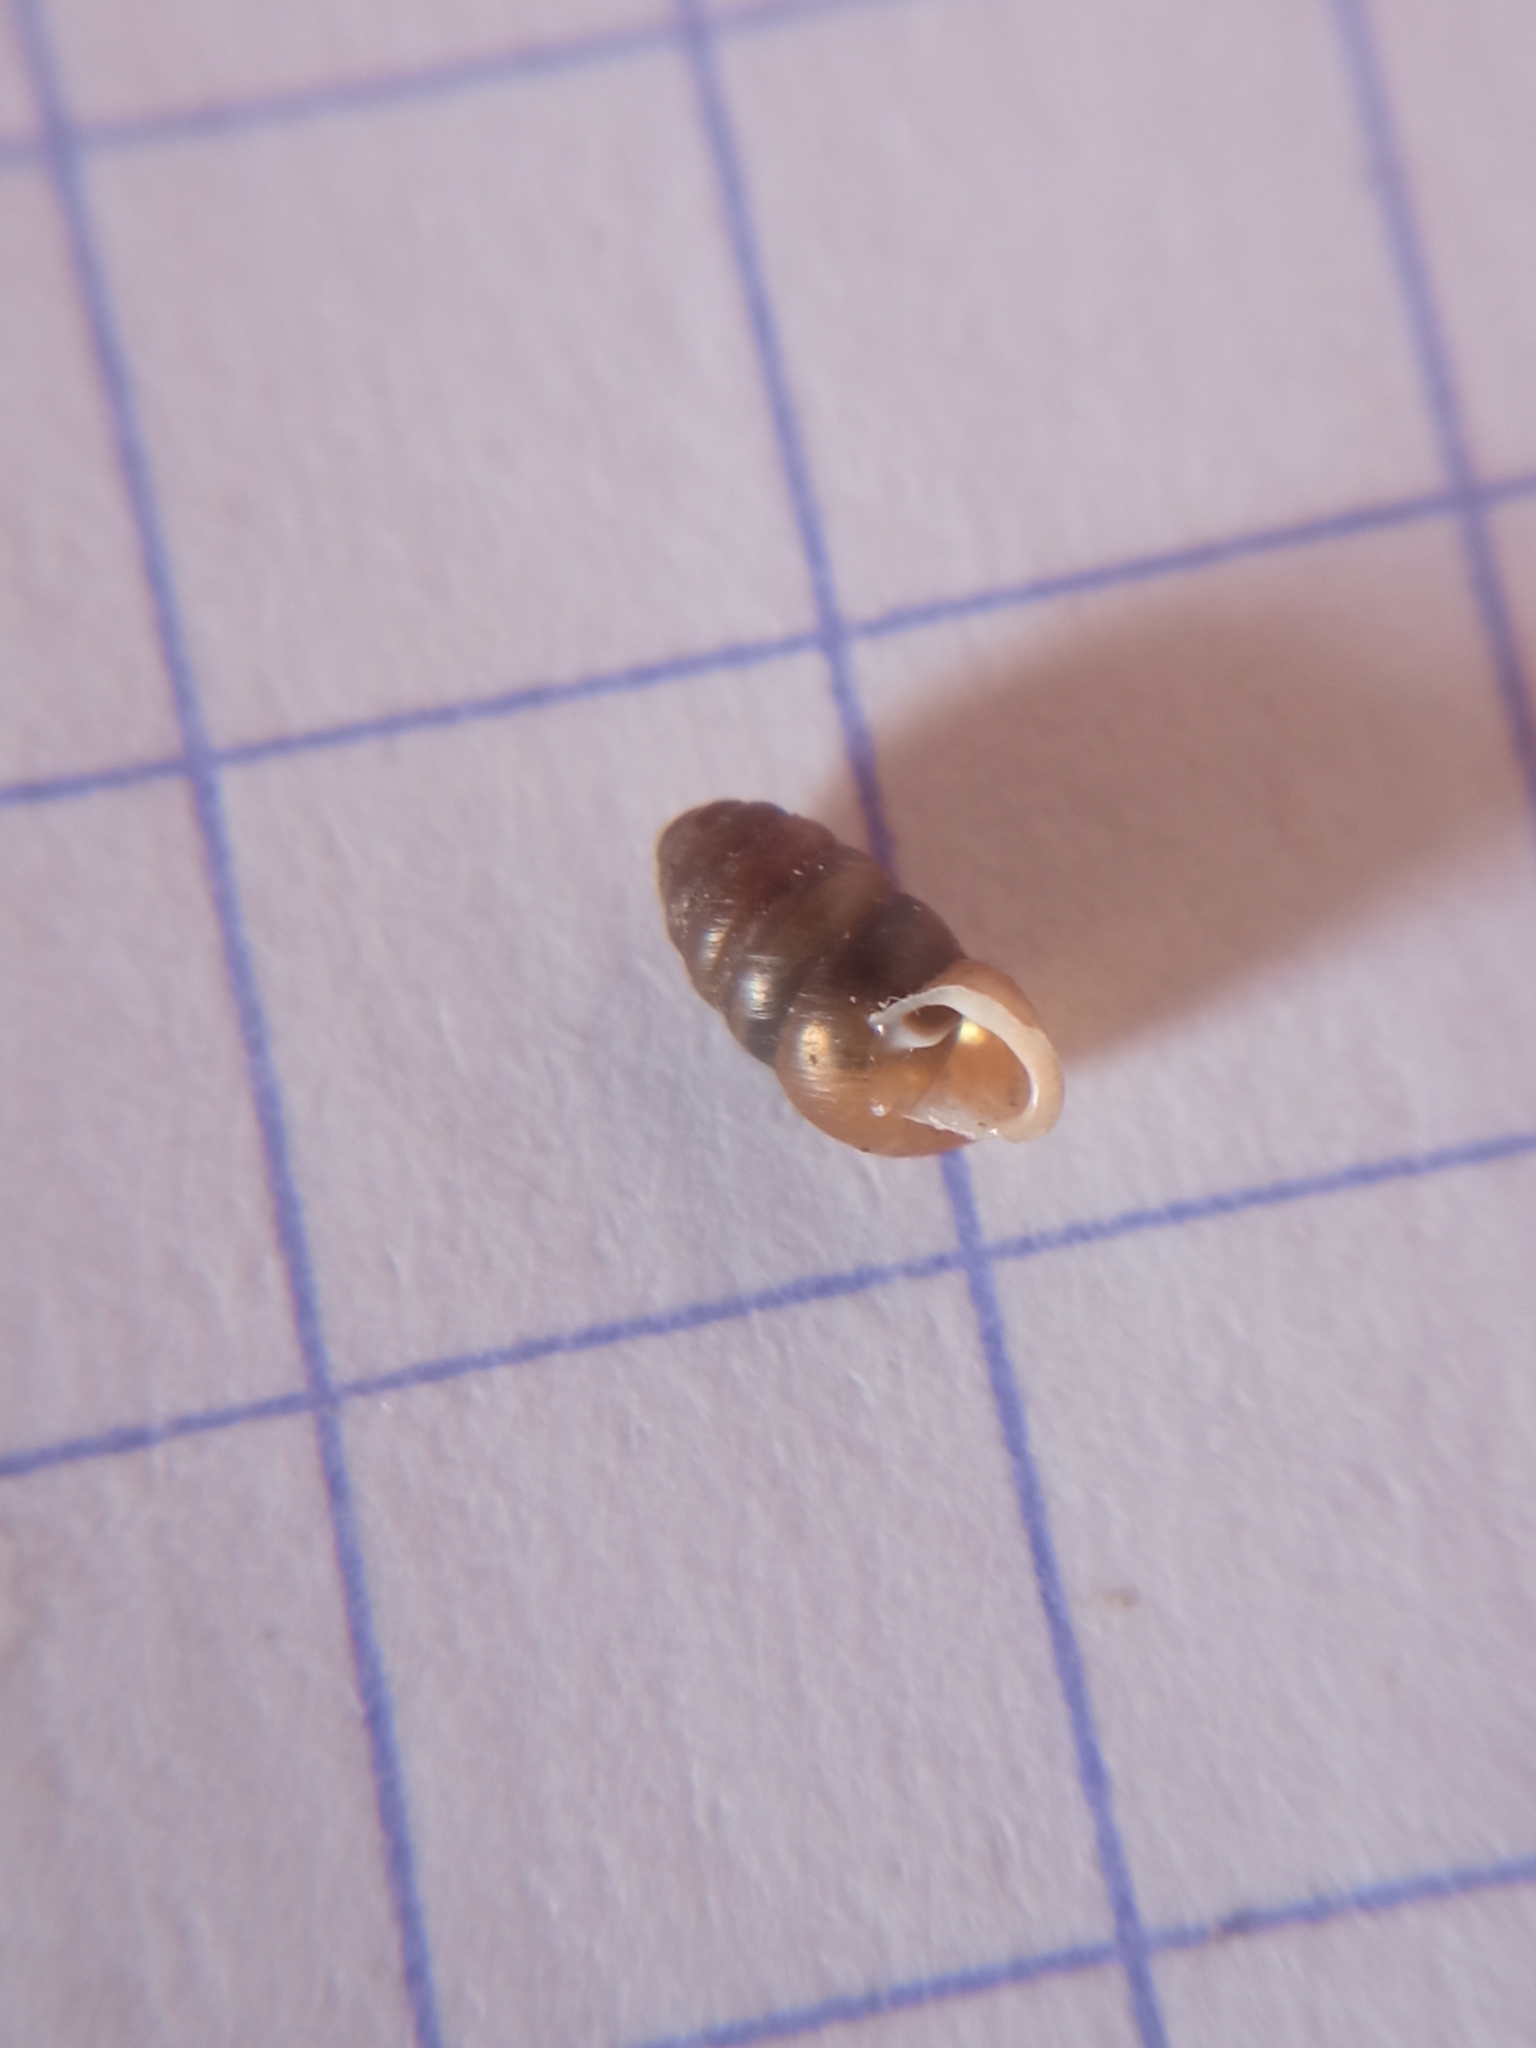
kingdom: Animalia
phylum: Mollusca
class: Gastropoda
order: Stylommatophora
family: Lauriidae
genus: Lauria
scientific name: Lauria cylindracea
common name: Common chrysalis snail
